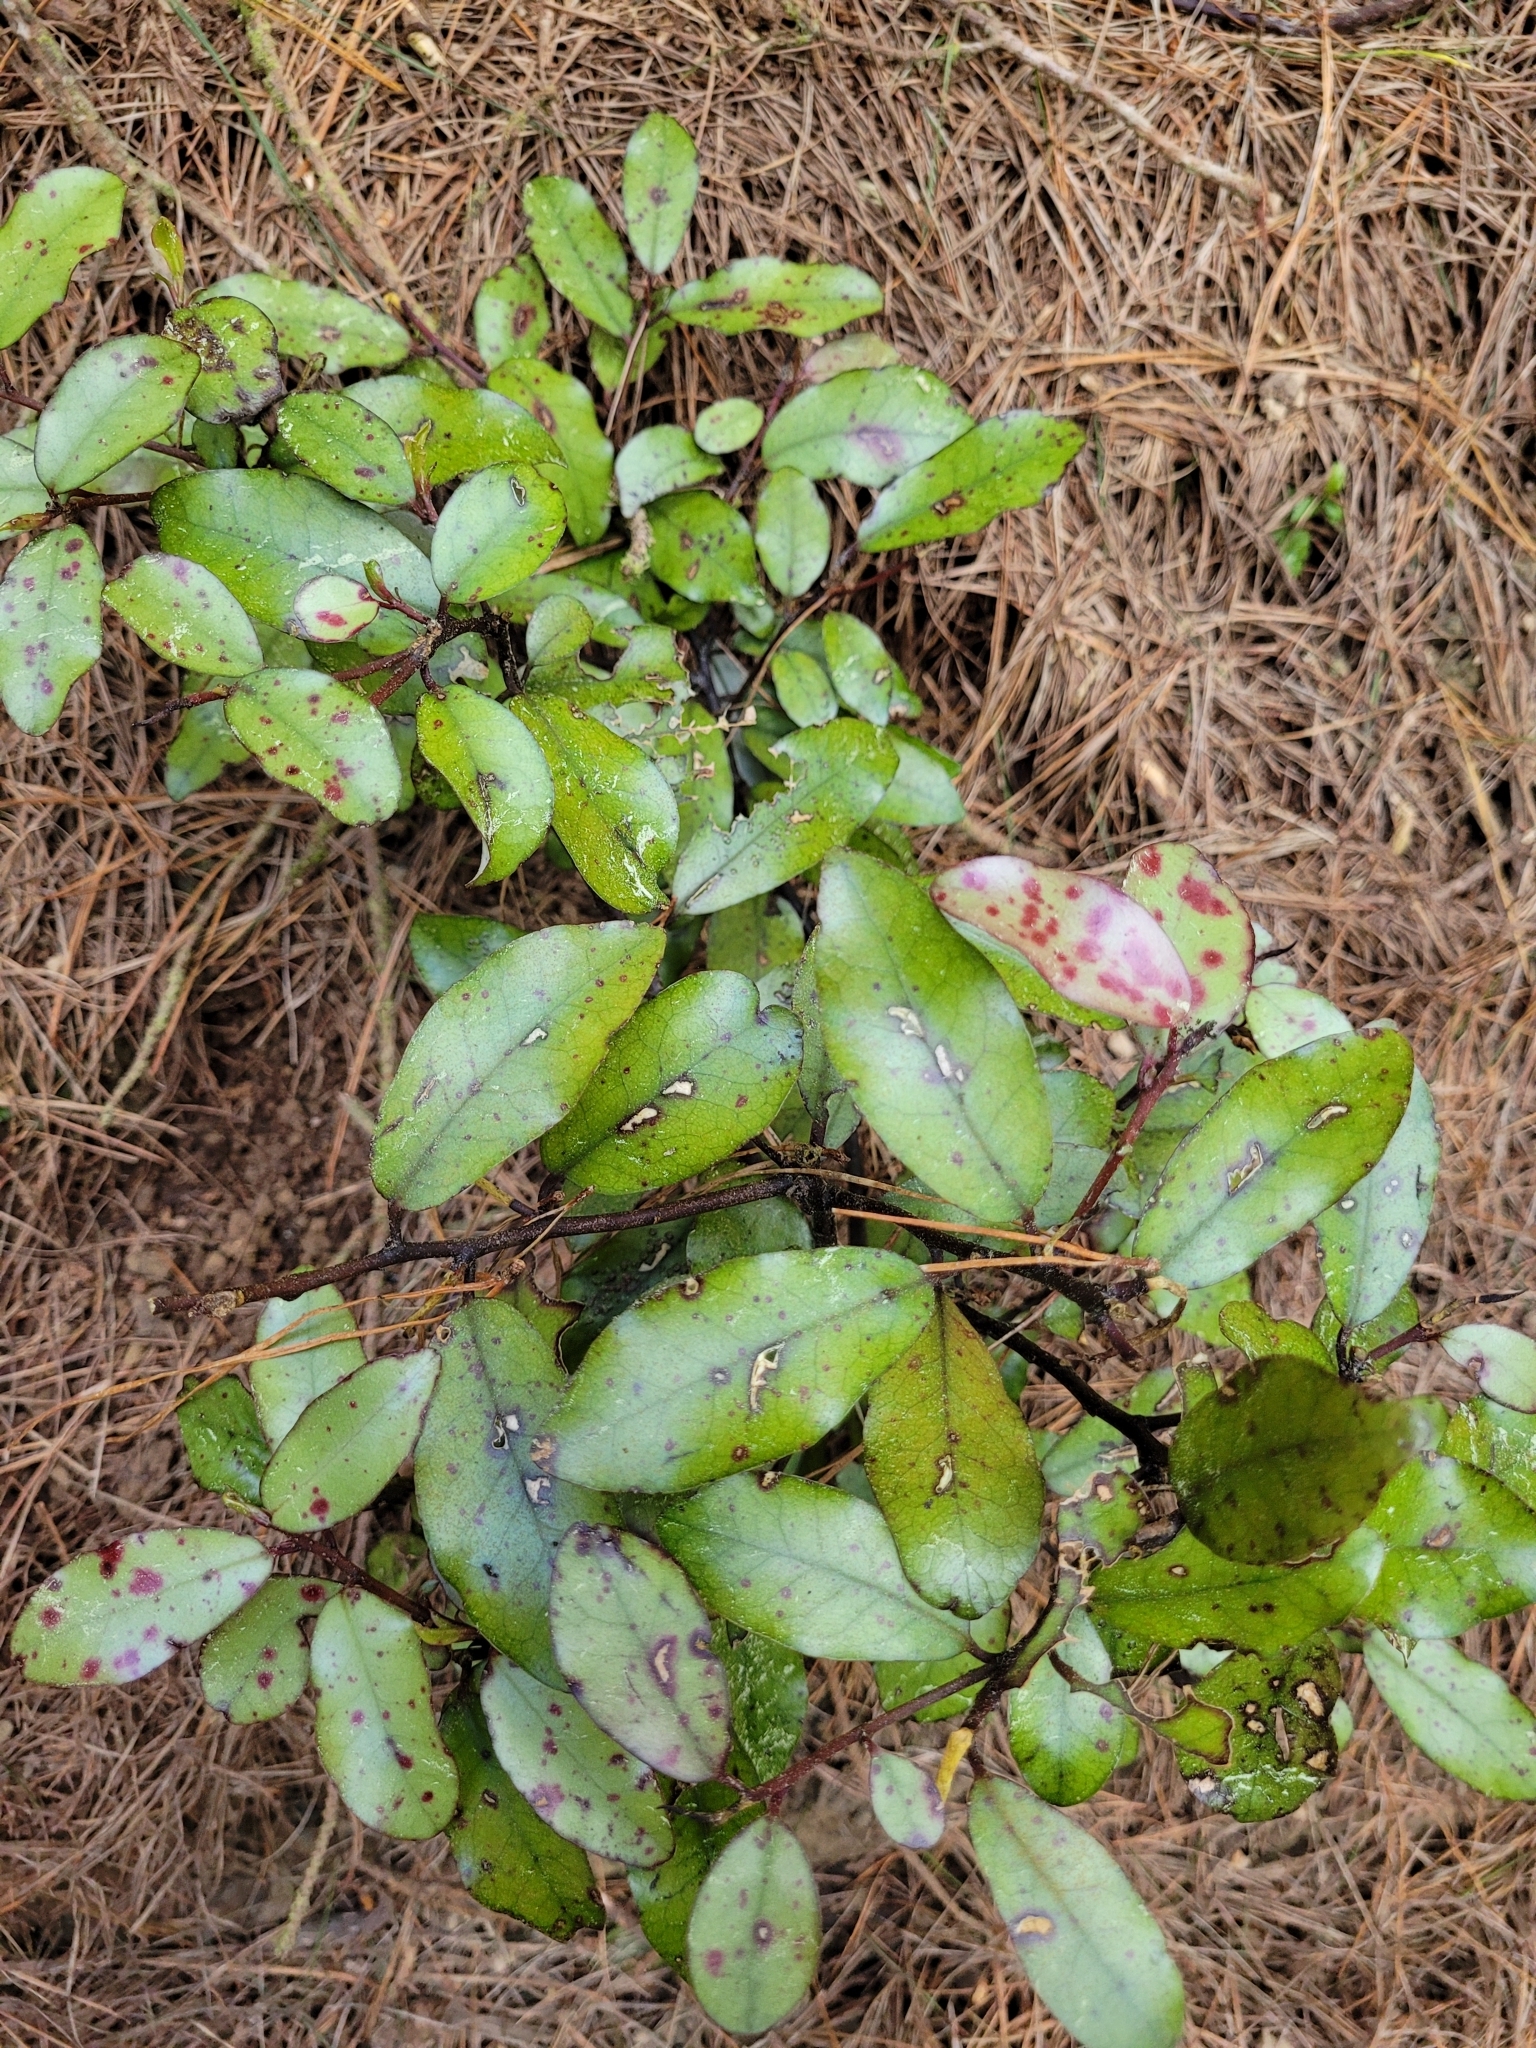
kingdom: Plantae
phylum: Tracheophyta
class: Magnoliopsida
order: Canellales
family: Winteraceae
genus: Pseudowintera
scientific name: Pseudowintera colorata
